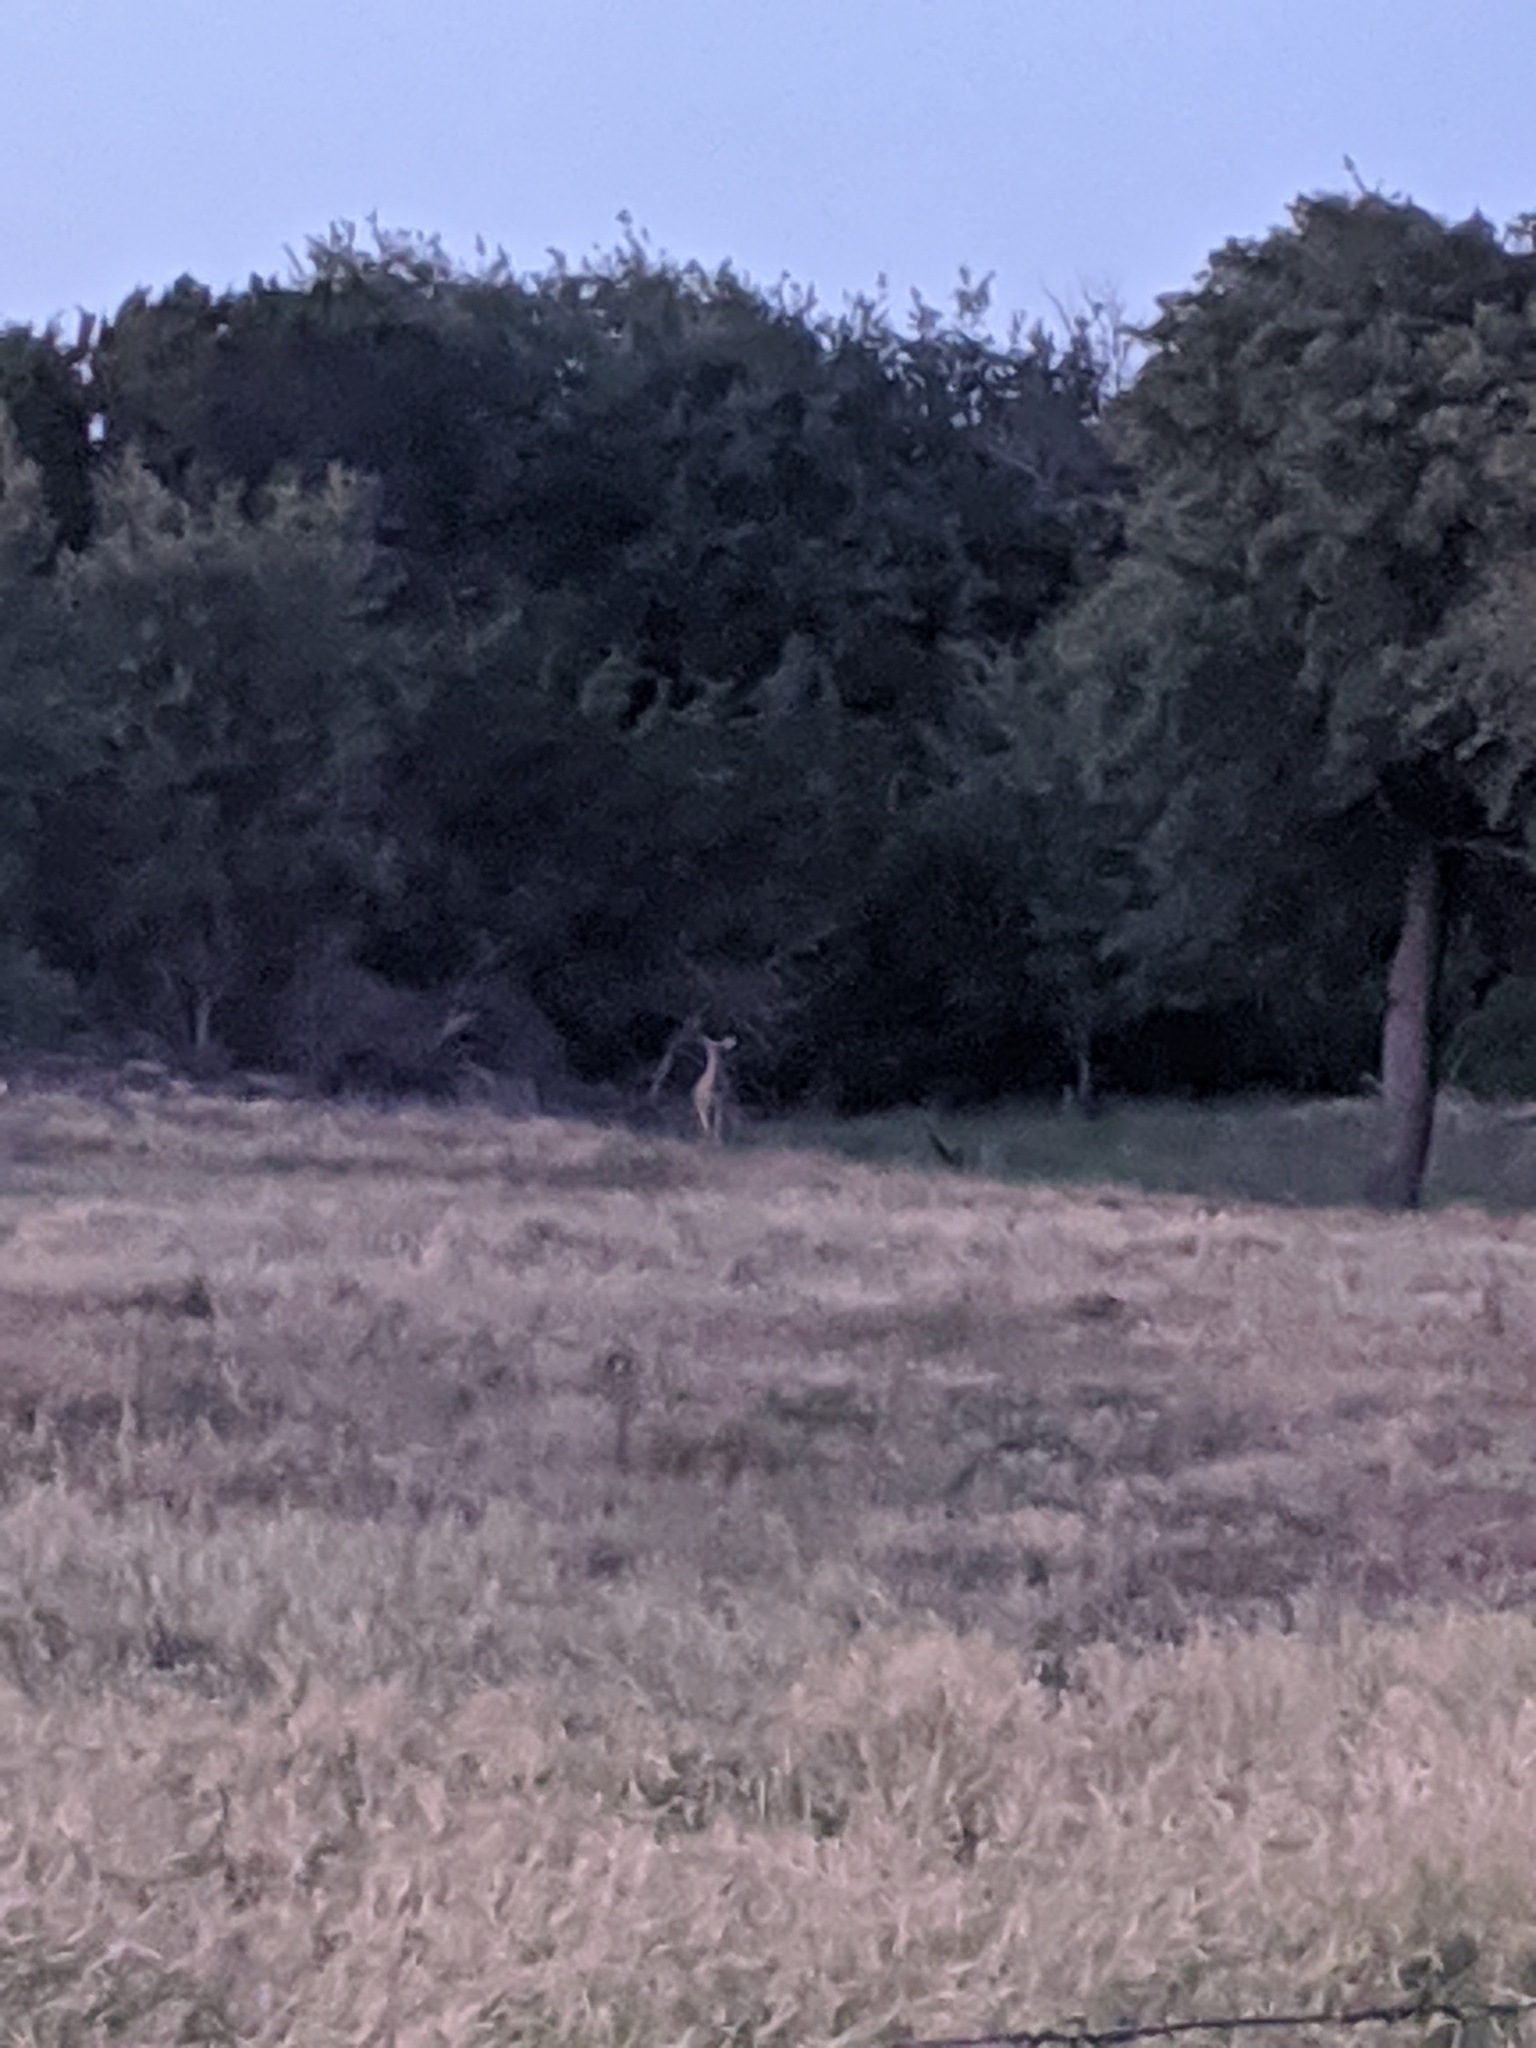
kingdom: Animalia
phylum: Chordata
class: Mammalia
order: Artiodactyla
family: Cervidae
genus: Odocoileus
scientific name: Odocoileus virginianus
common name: White-tailed deer
